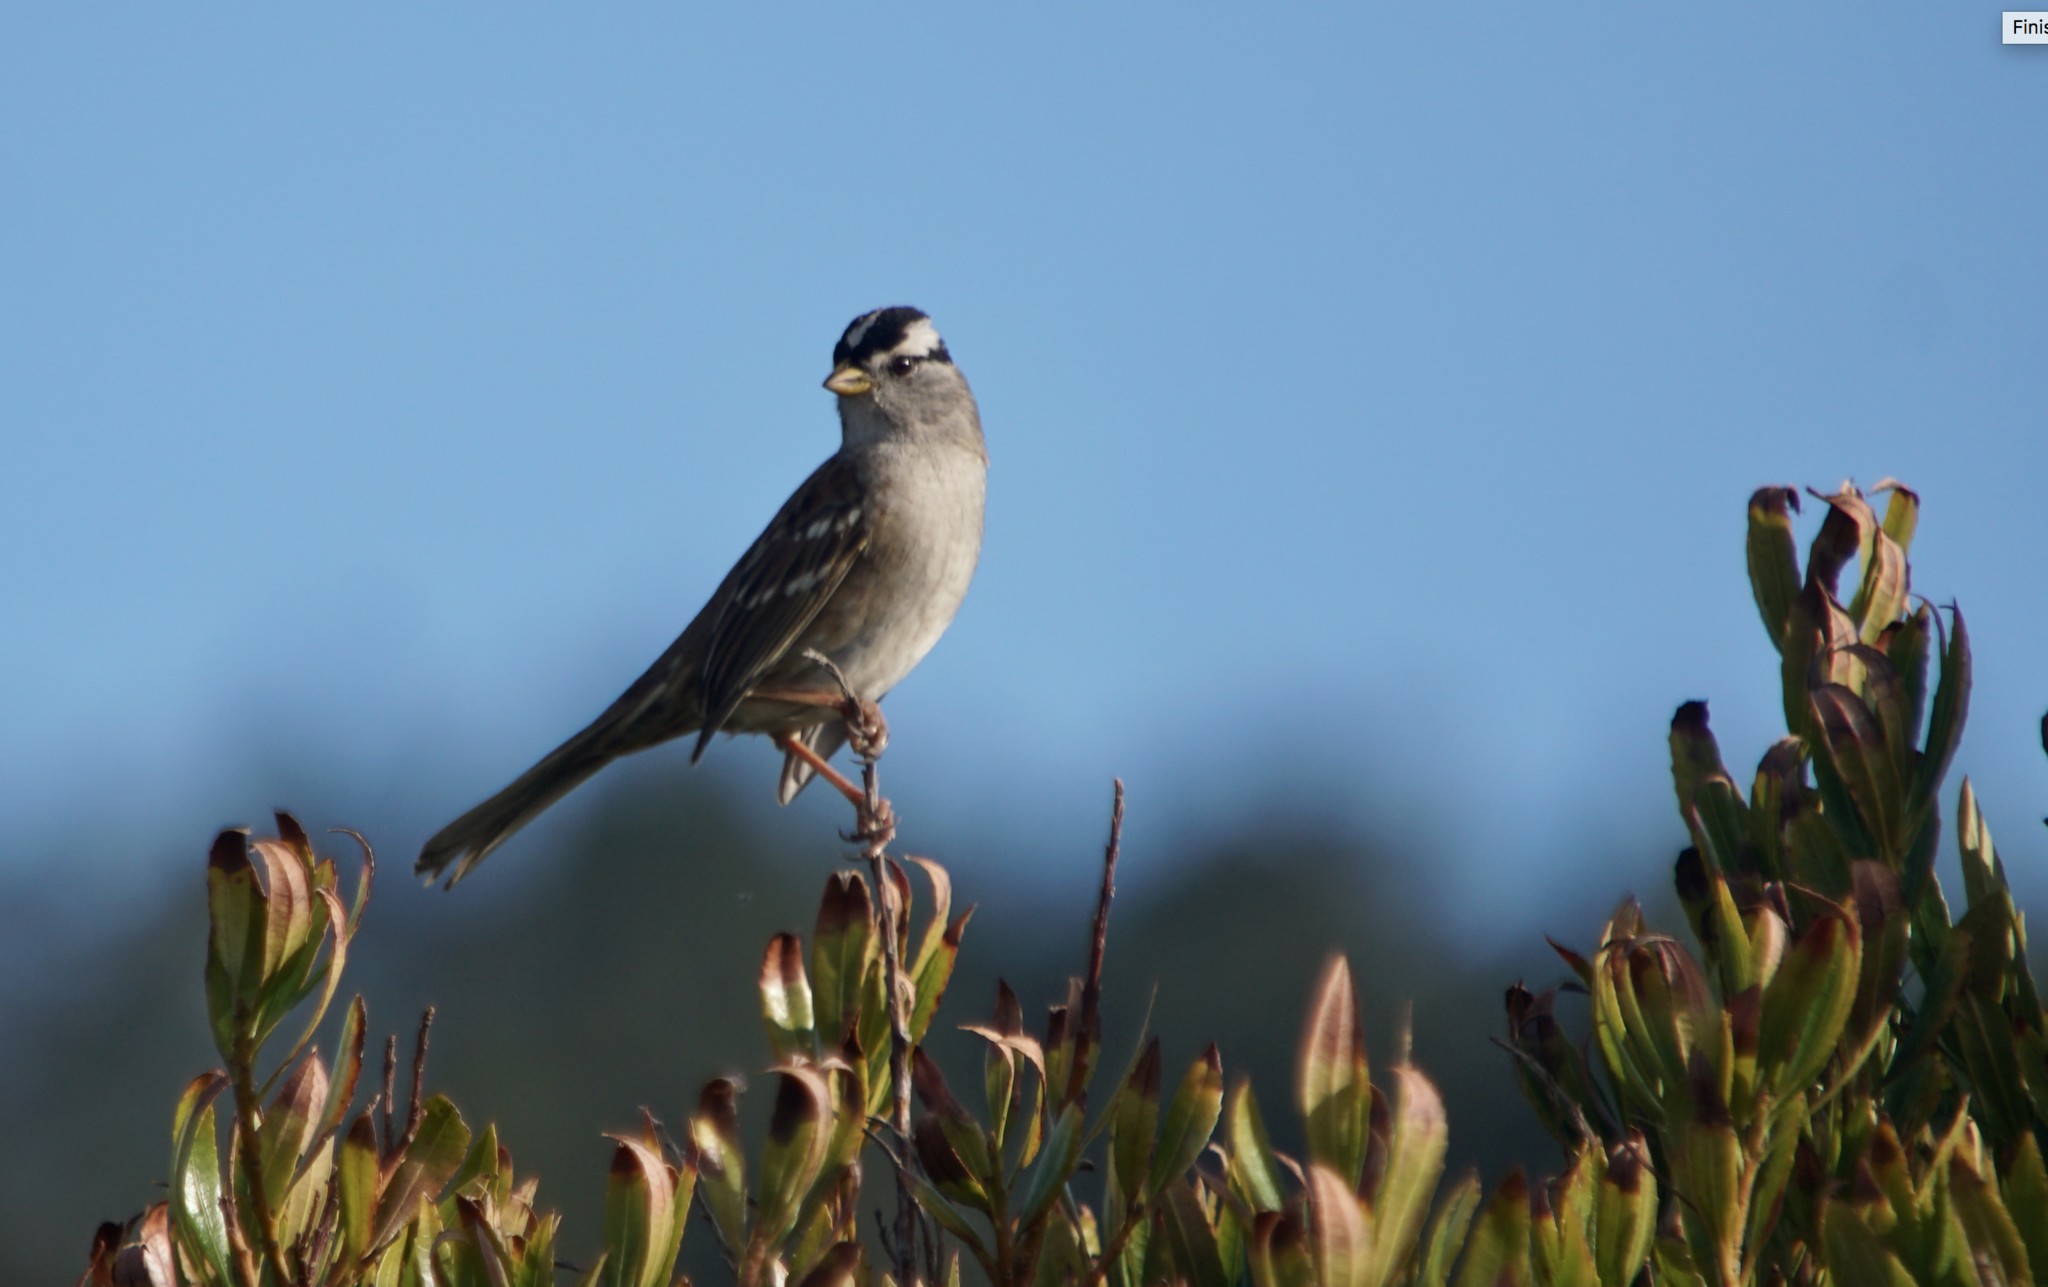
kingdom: Animalia
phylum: Chordata
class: Aves
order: Passeriformes
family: Passerellidae
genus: Zonotrichia
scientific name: Zonotrichia leucophrys
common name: White-crowned sparrow
